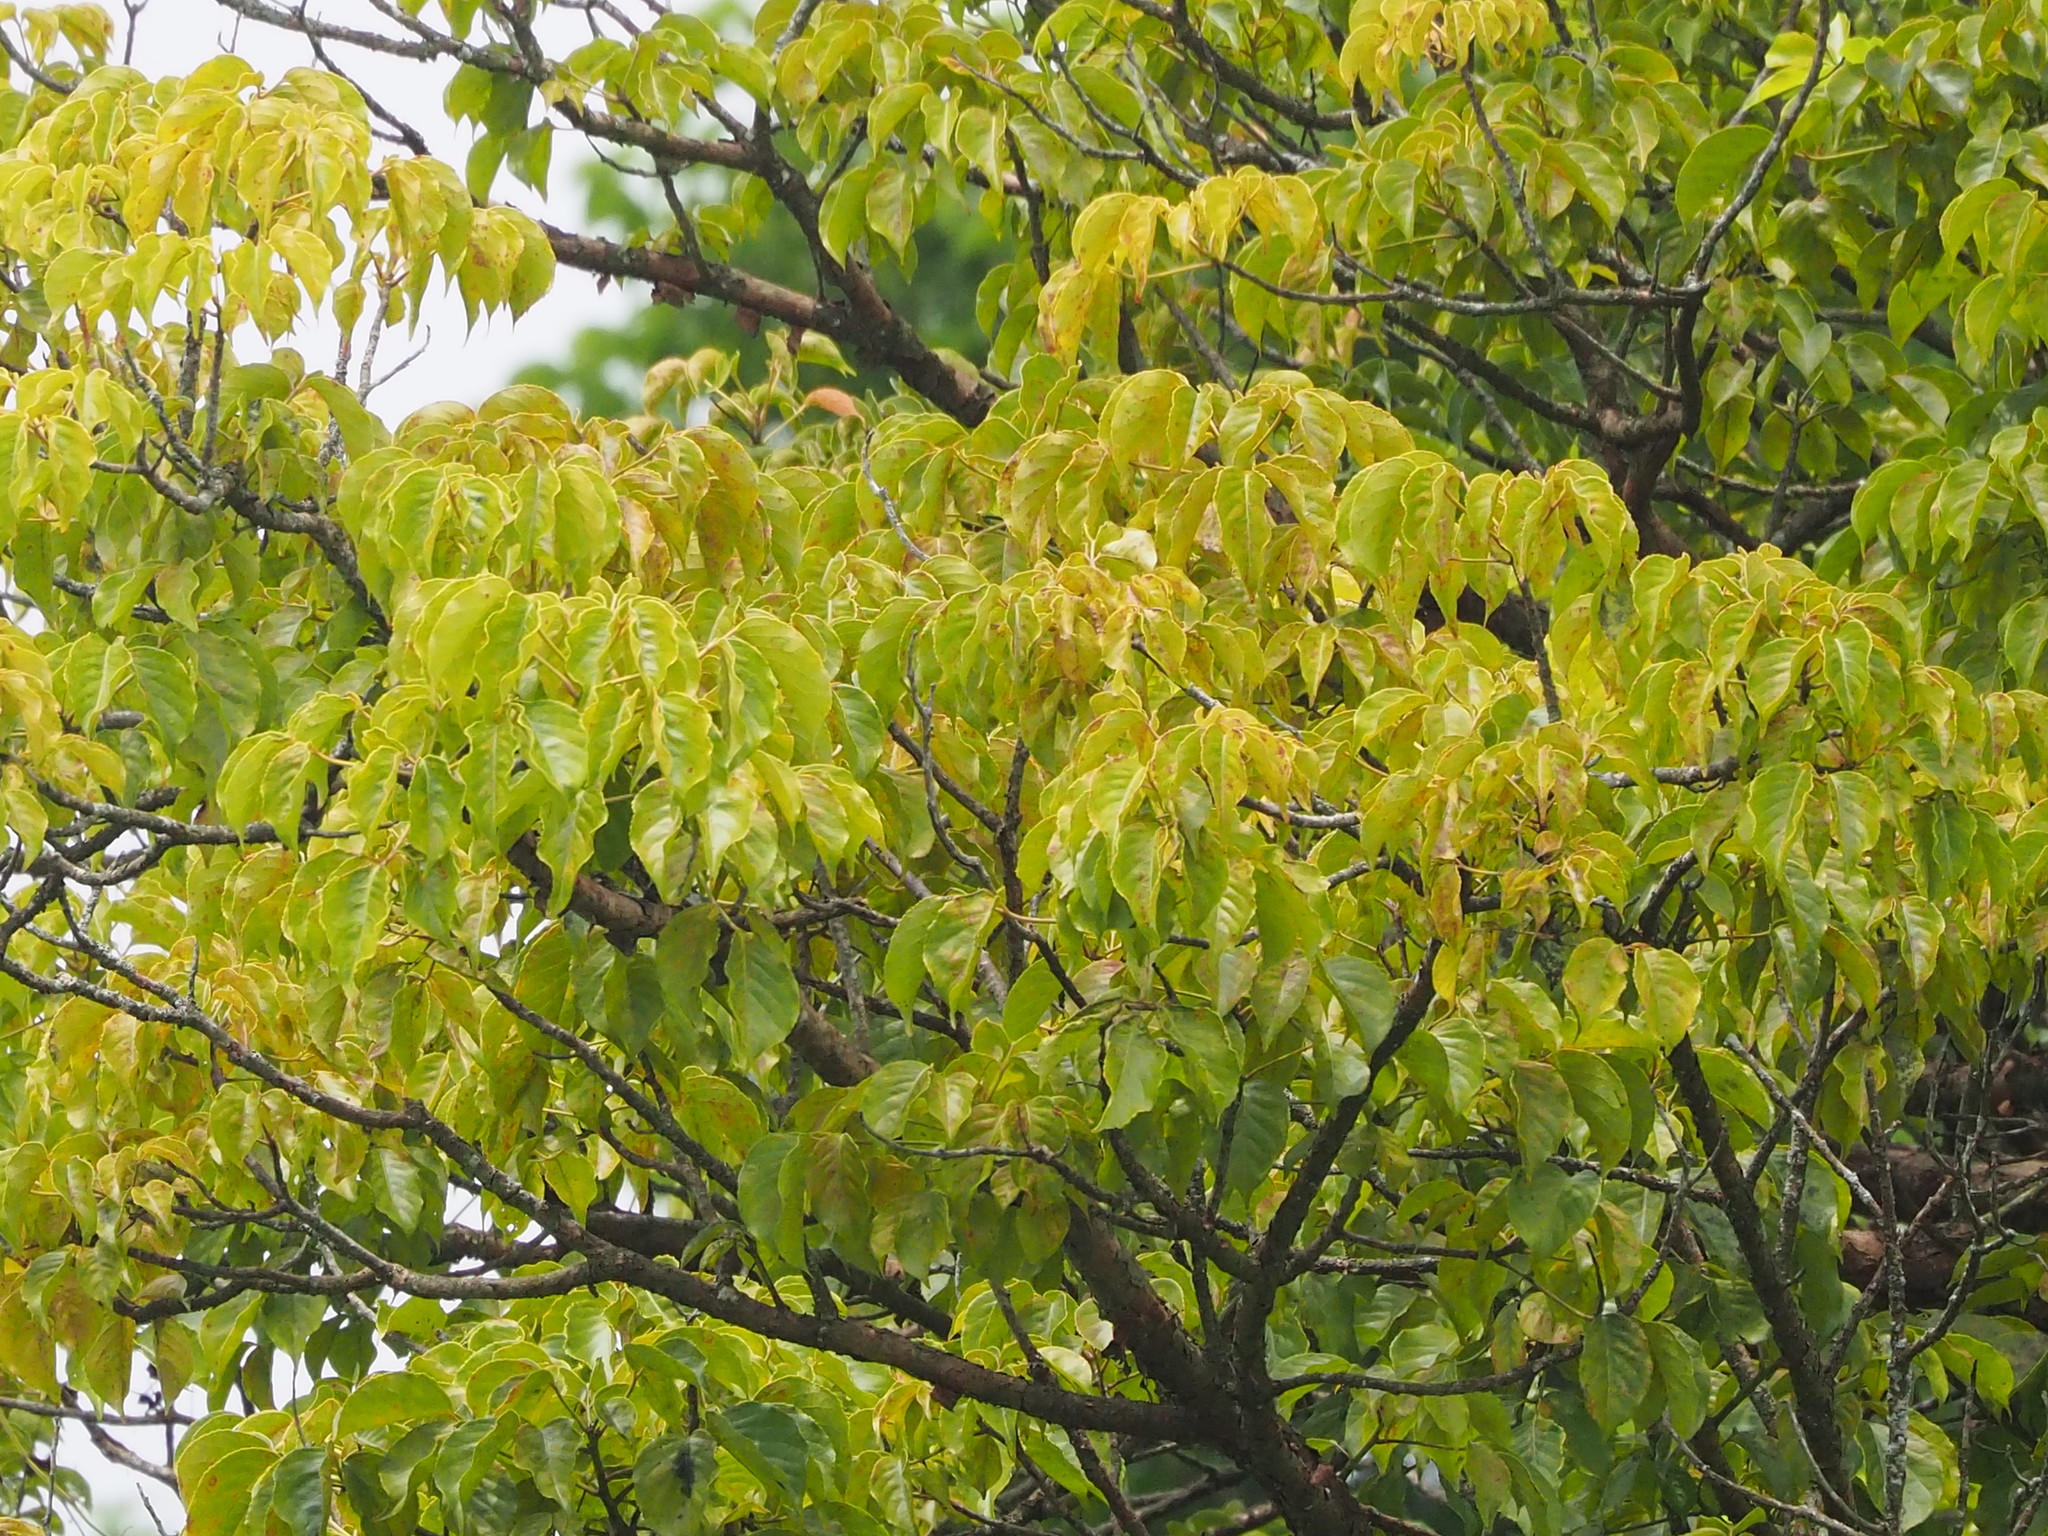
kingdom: Plantae
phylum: Tracheophyta
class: Magnoliopsida
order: Malpighiales
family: Phyllanthaceae
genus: Bischofia
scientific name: Bischofia javanica
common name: Javanese bishopwood
